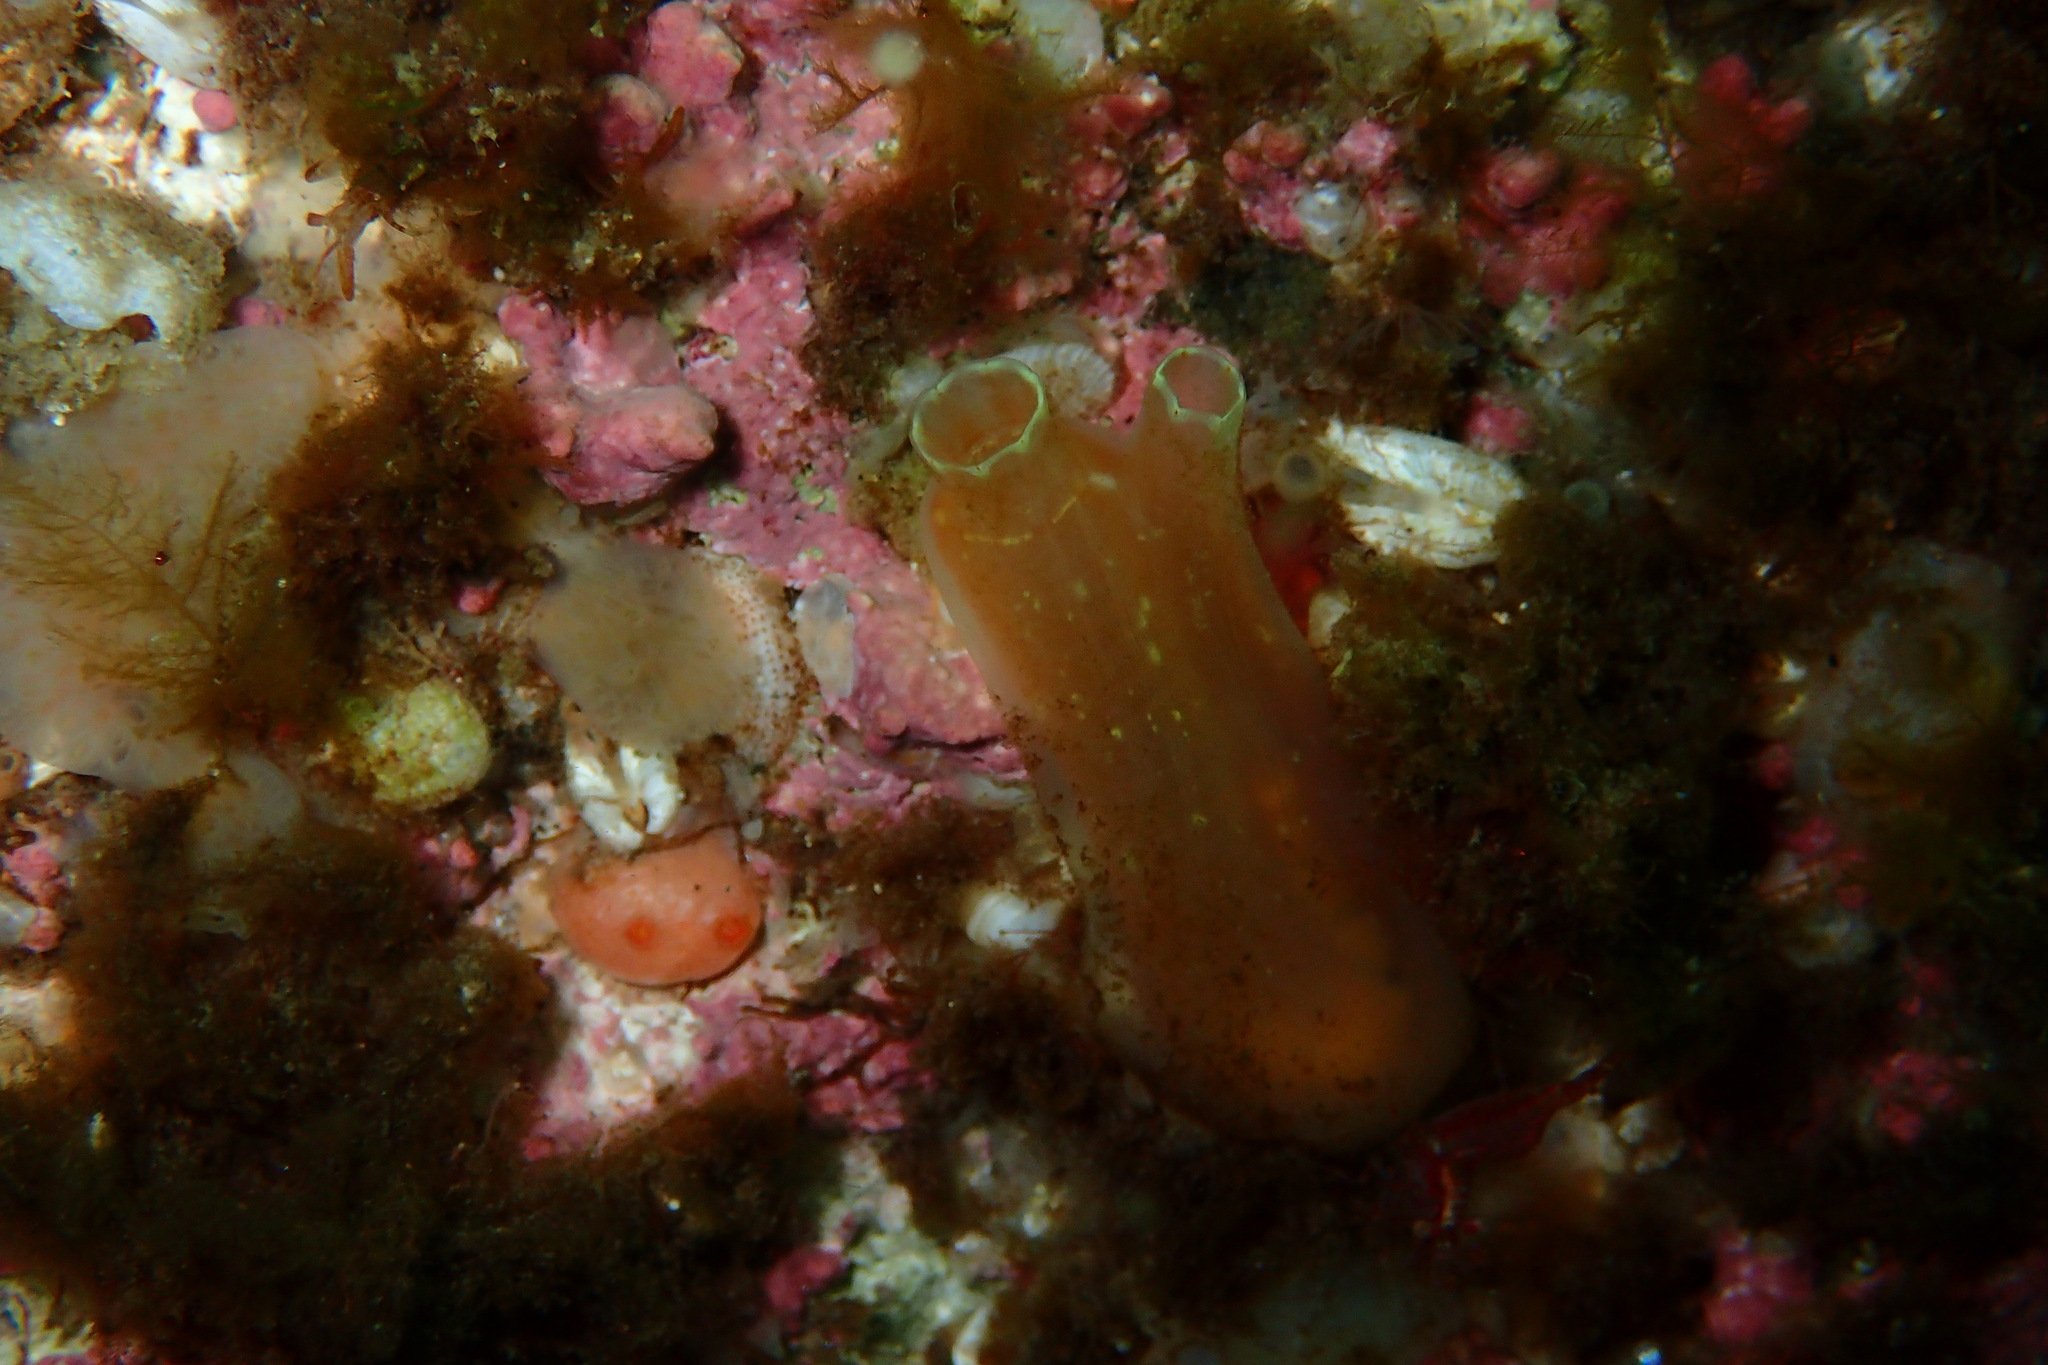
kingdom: Animalia
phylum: Chordata
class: Ascidiacea
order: Phlebobranchia
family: Cionidae
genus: Ciona
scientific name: Ciona intestinalis
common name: Vase tunicate
